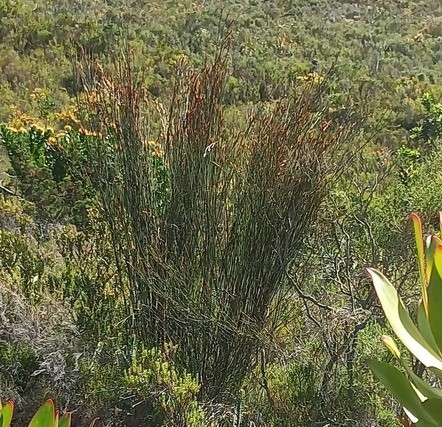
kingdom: Plantae
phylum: Tracheophyta
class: Liliopsida
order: Poales
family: Restionaceae
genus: Restio
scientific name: Restio dispar
